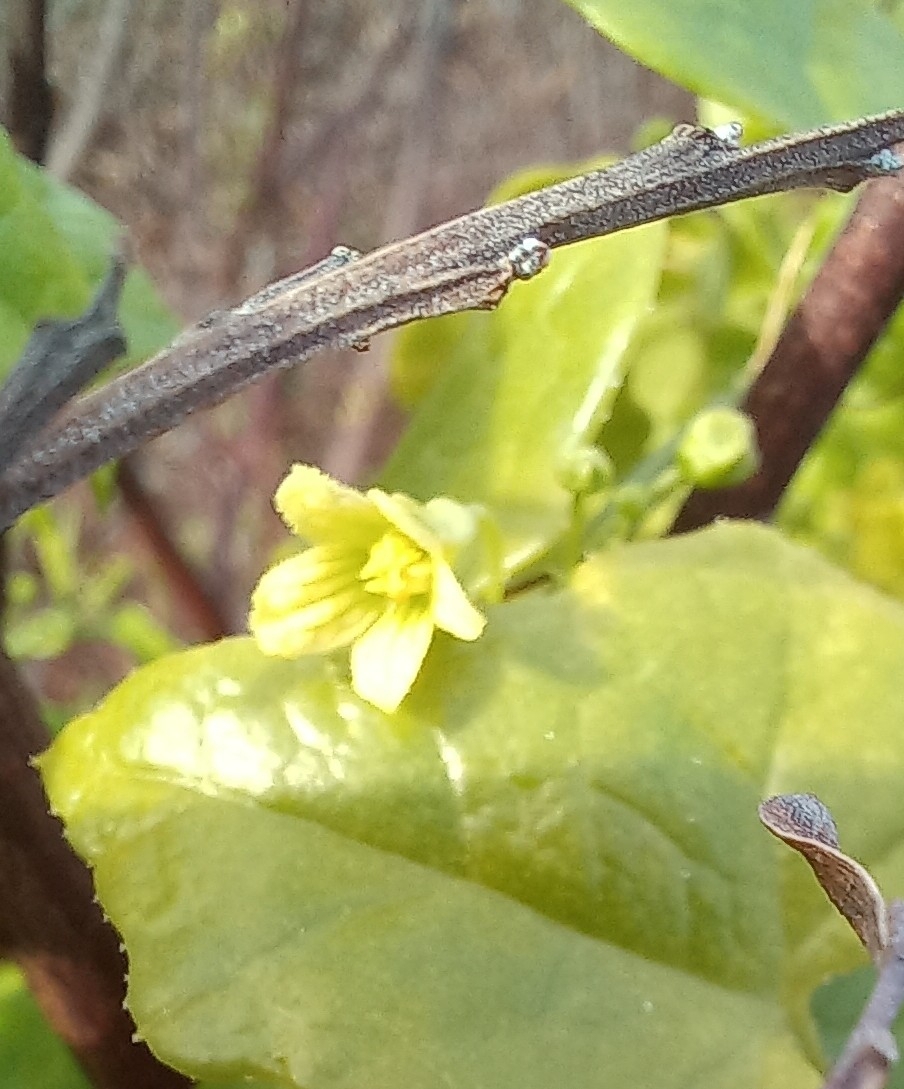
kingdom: Plantae
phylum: Tracheophyta
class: Magnoliopsida
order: Cucurbitales
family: Cucurbitaceae
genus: Kedrostis
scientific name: Kedrostis nana
